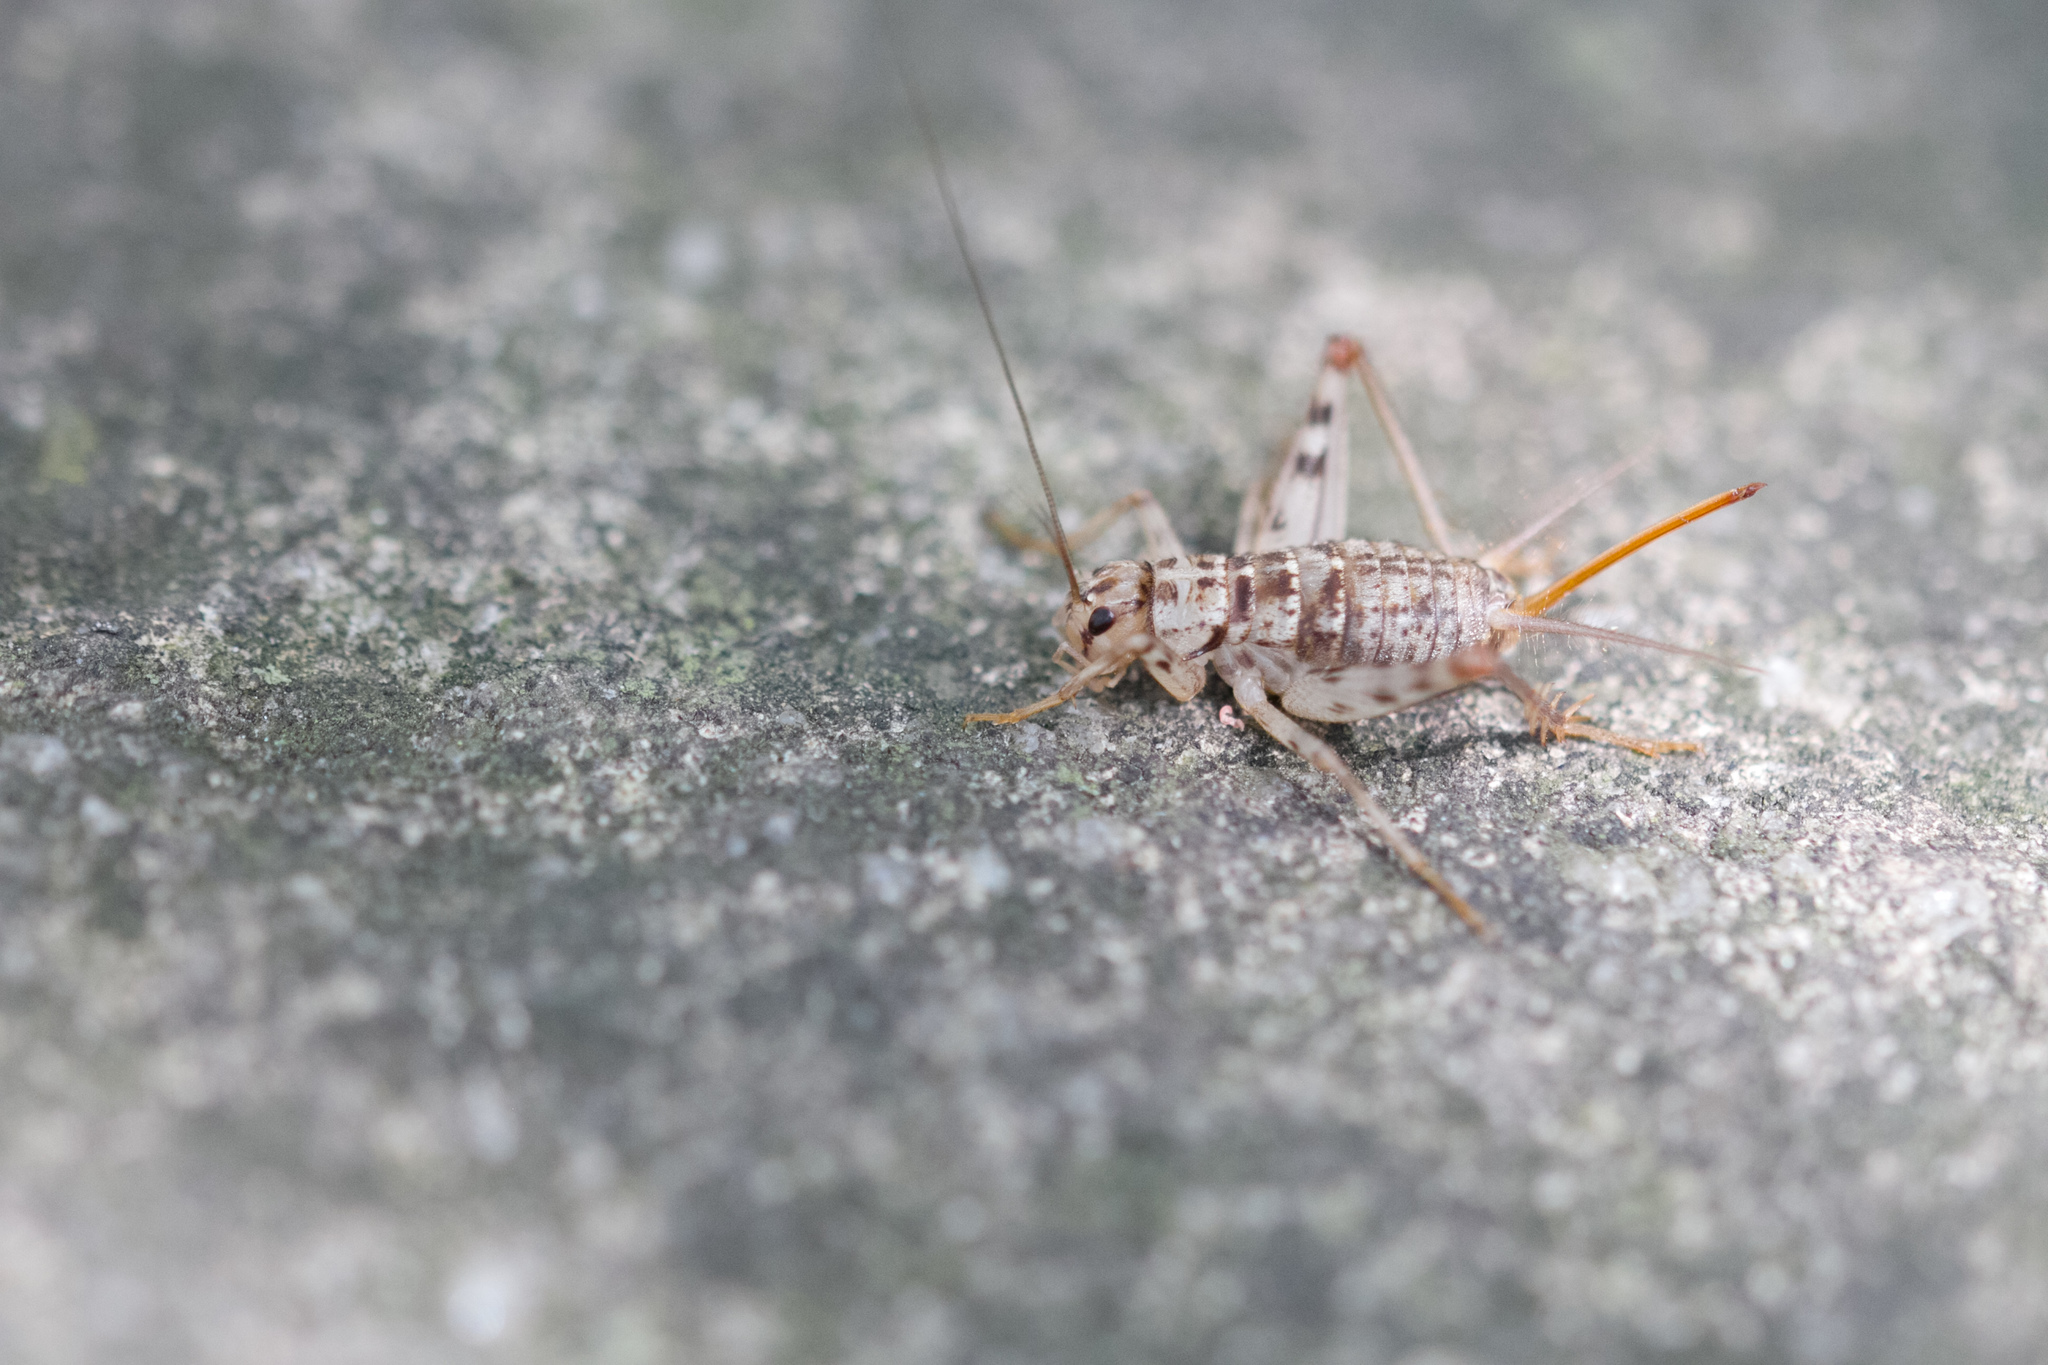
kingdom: Animalia
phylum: Arthropoda
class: Insecta
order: Orthoptera
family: Gryllidae
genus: Gryllomorpha
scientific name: Gryllomorpha dalmatina
